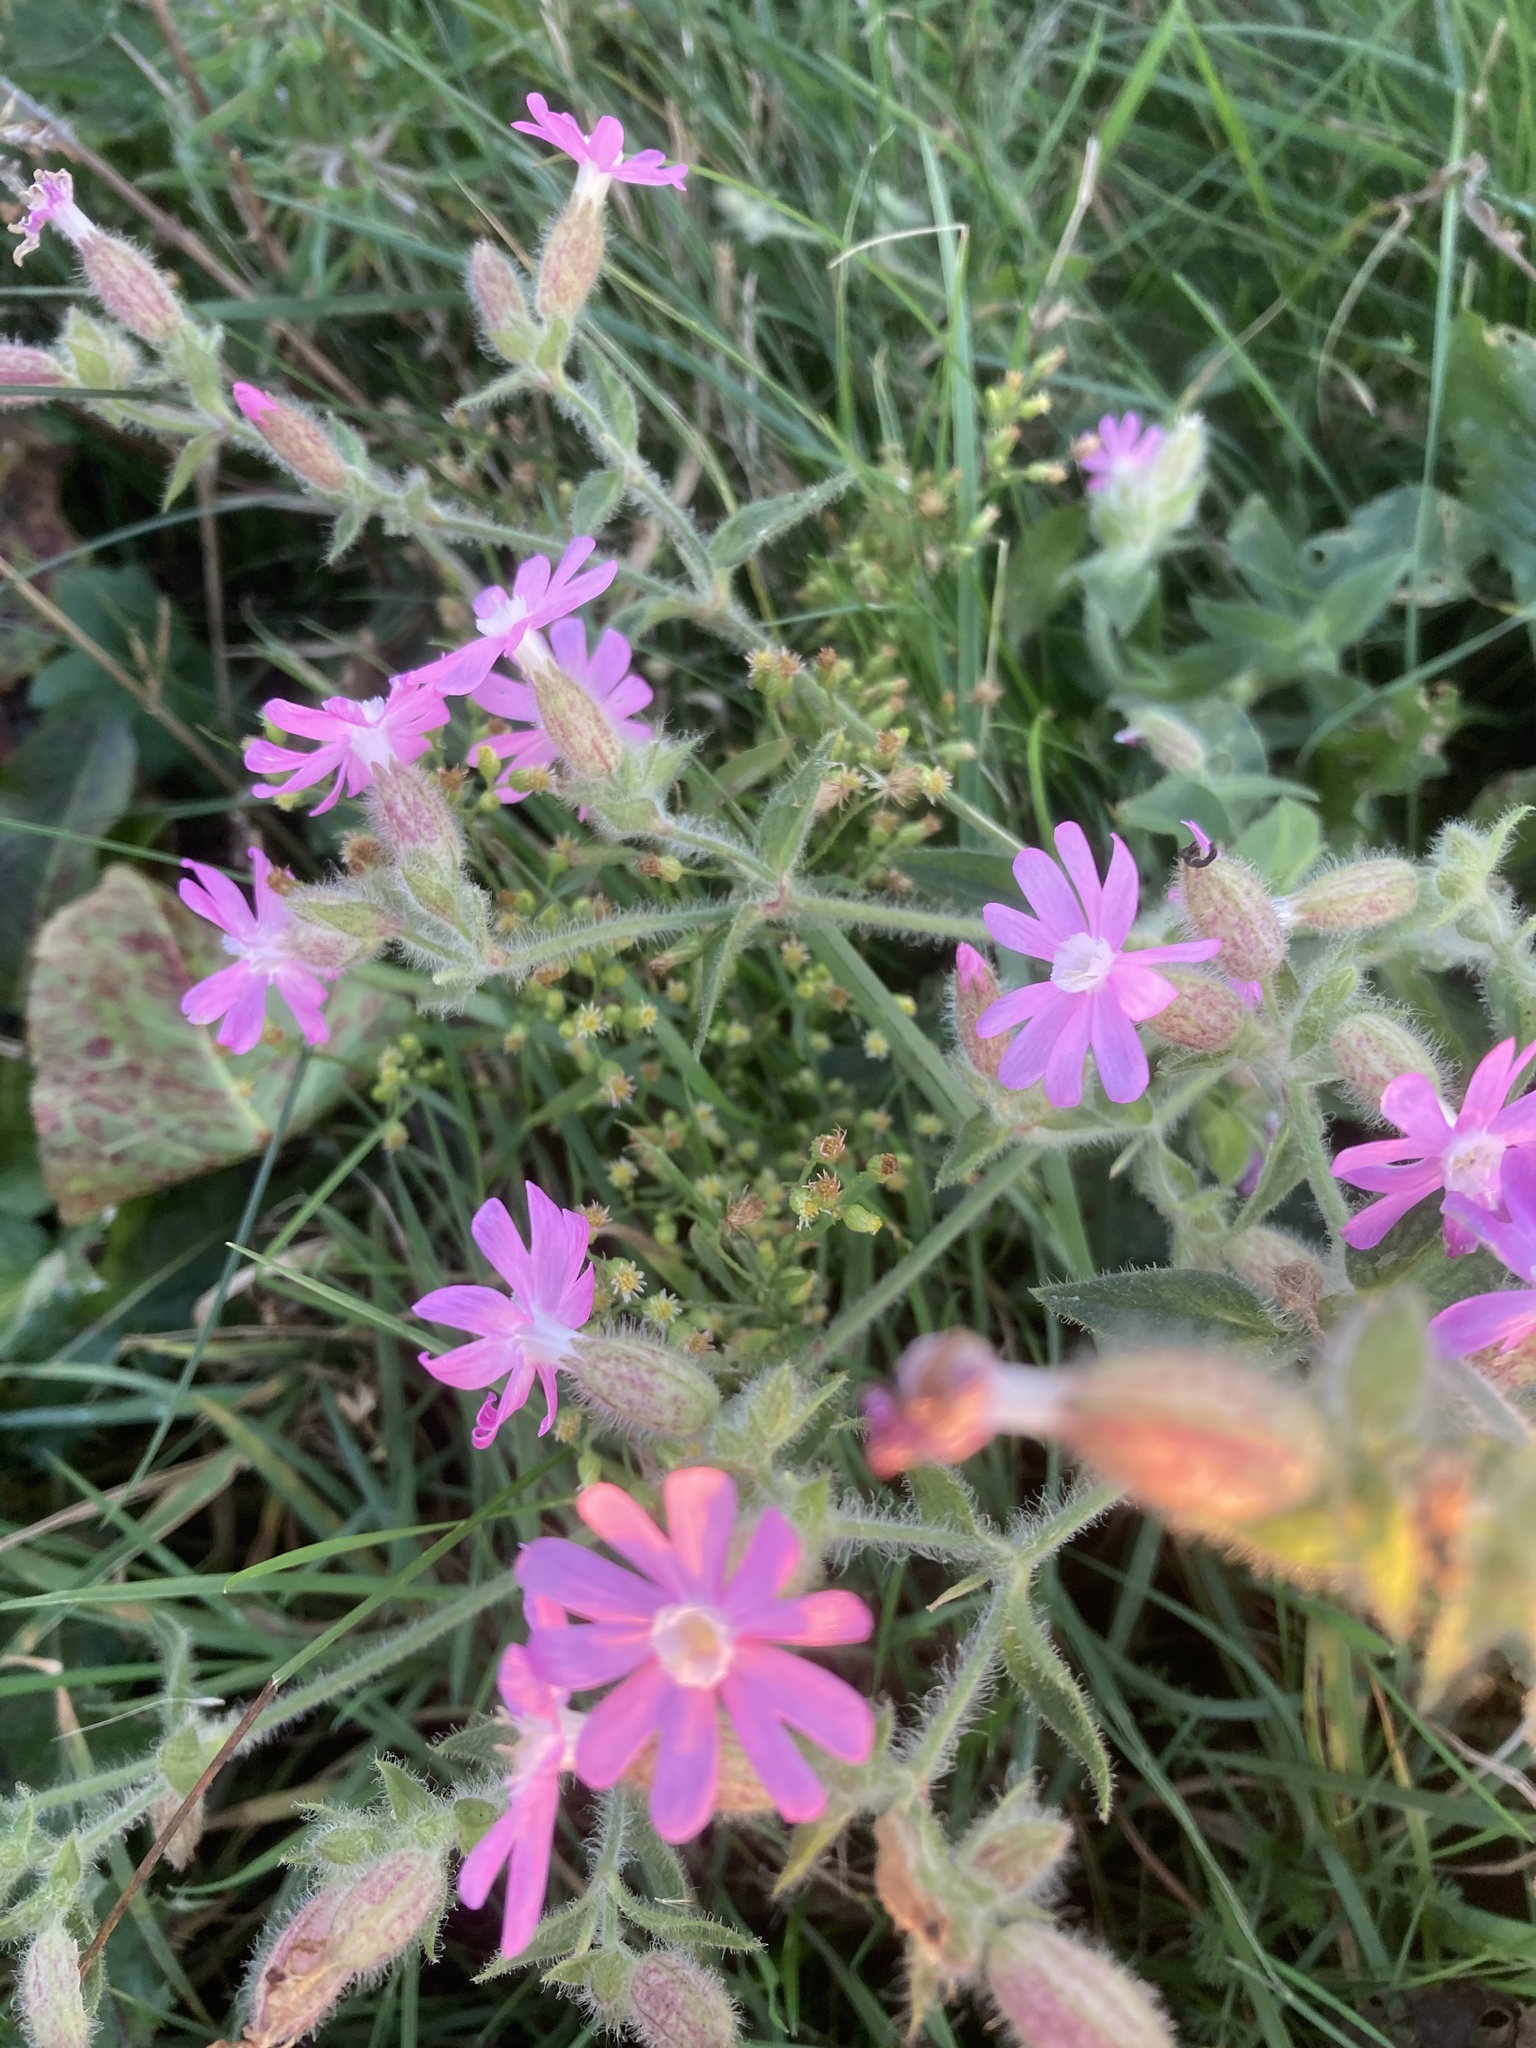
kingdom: Plantae
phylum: Tracheophyta
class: Magnoliopsida
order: Caryophyllales
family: Caryophyllaceae
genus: Silene
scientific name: Silene dioica
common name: Red campion
